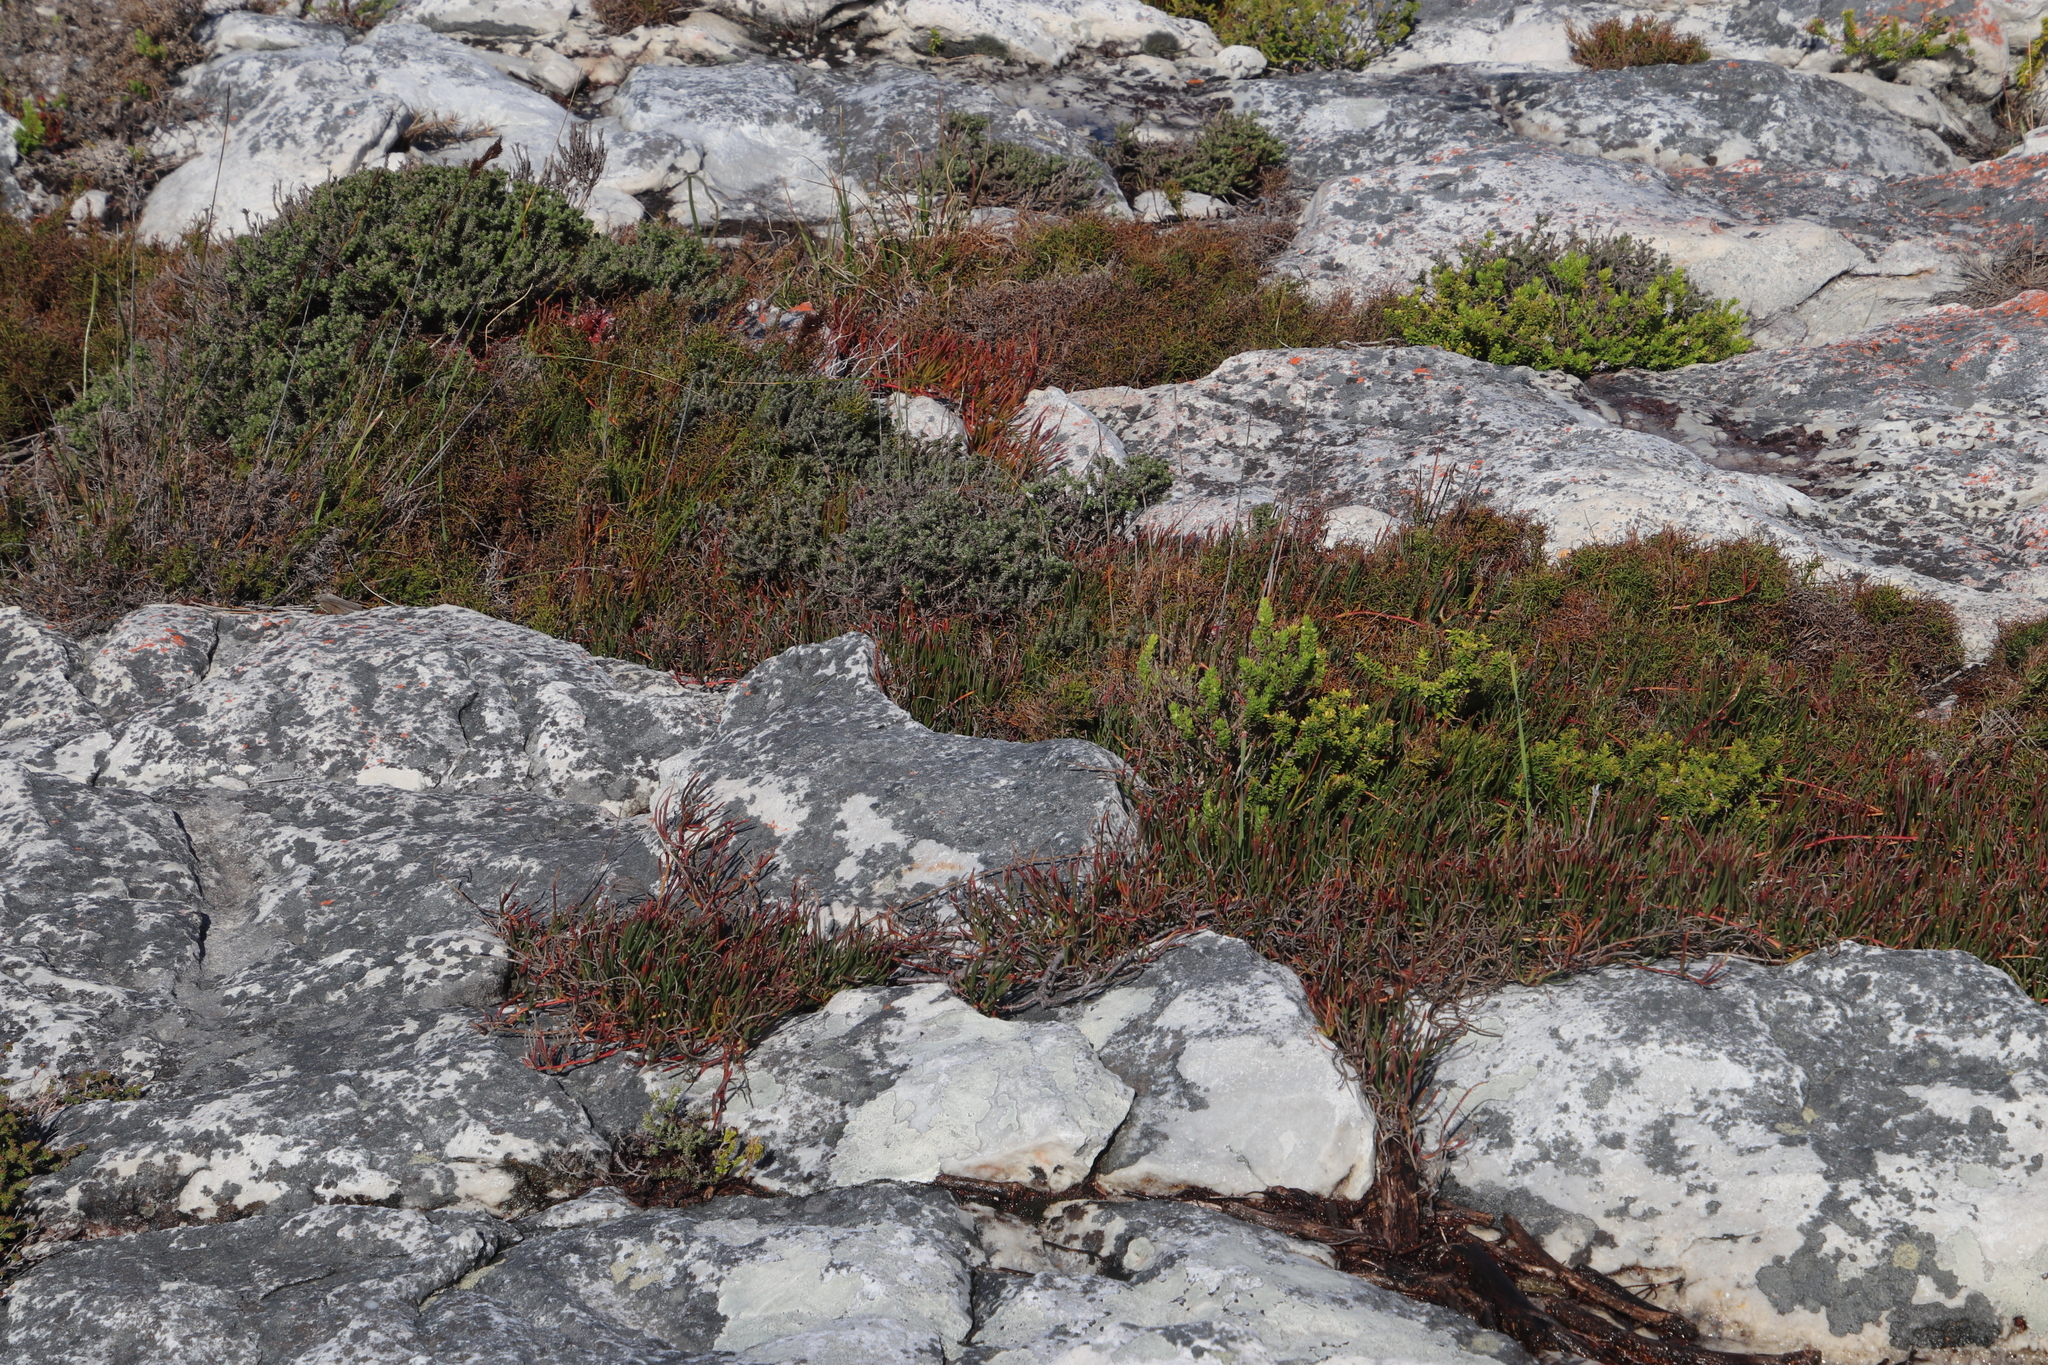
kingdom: Plantae
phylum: Tracheophyta
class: Magnoliopsida
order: Proteales
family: Proteaceae
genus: Serruria
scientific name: Serruria decumbens
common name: Peninsula spiderhead
